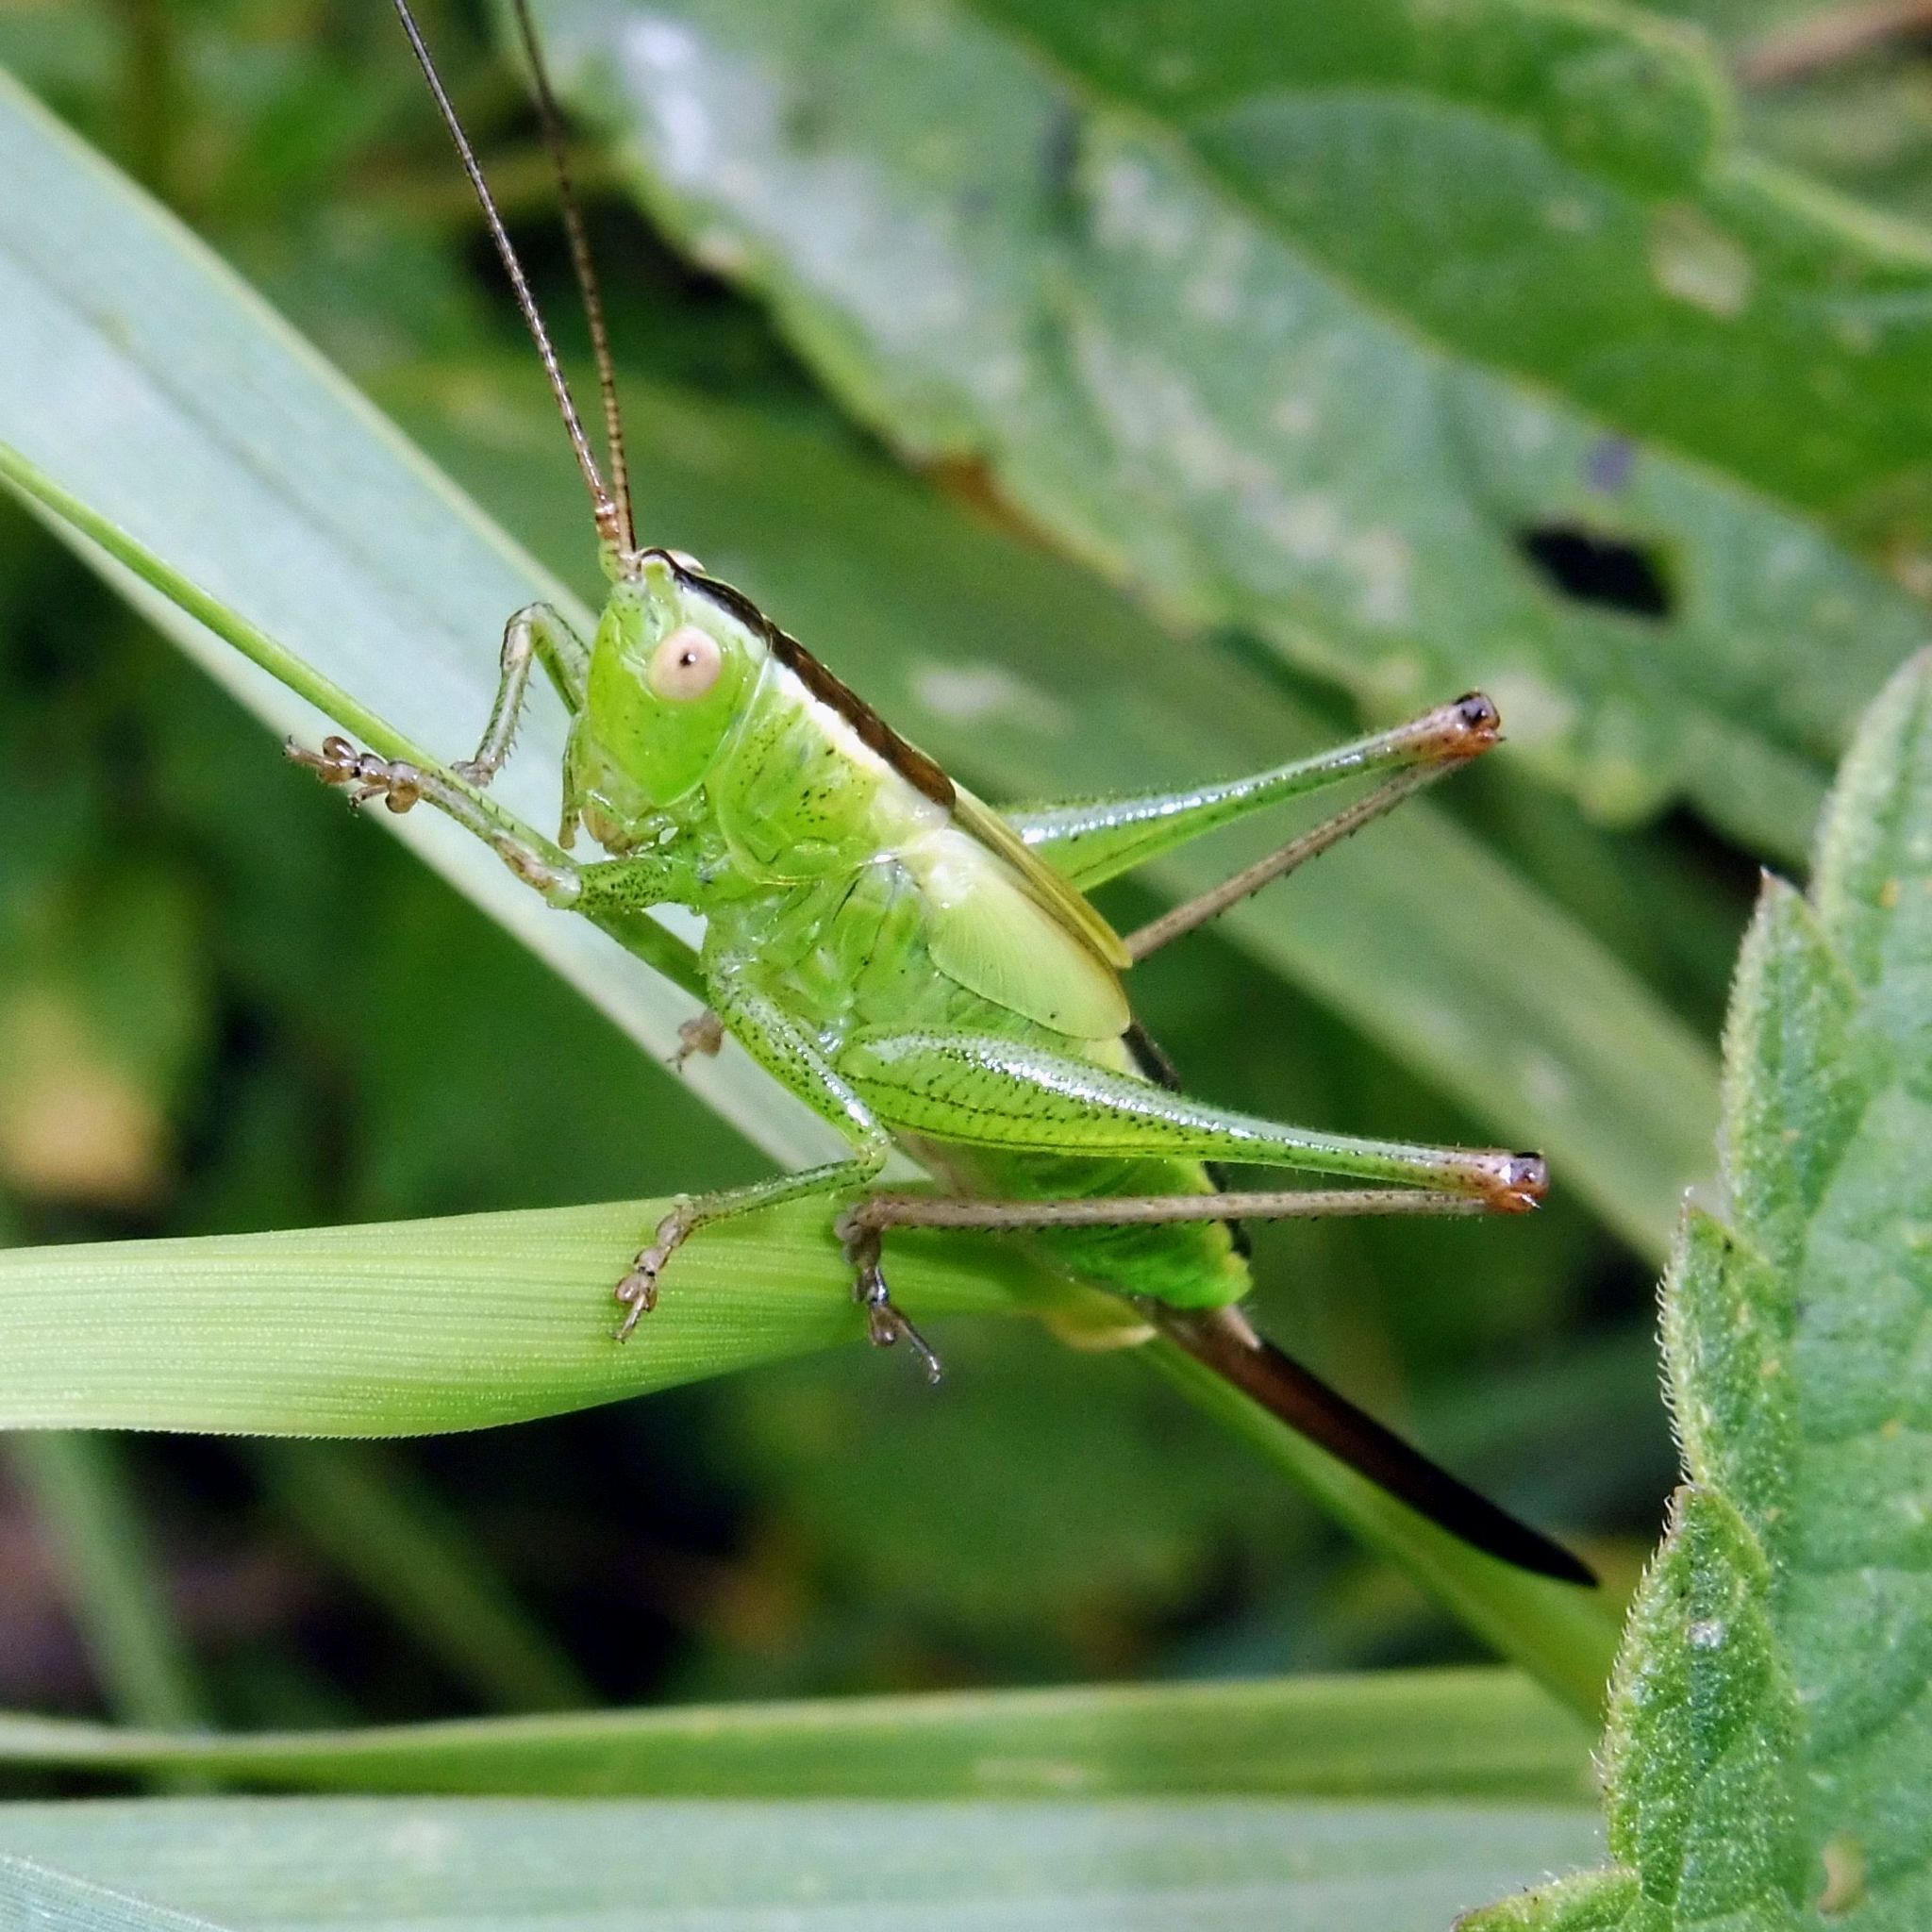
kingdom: Animalia
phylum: Arthropoda
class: Insecta
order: Orthoptera
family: Tettigoniidae
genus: Conocephalus
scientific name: Conocephalus fuscus
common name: Long-winged conehead
